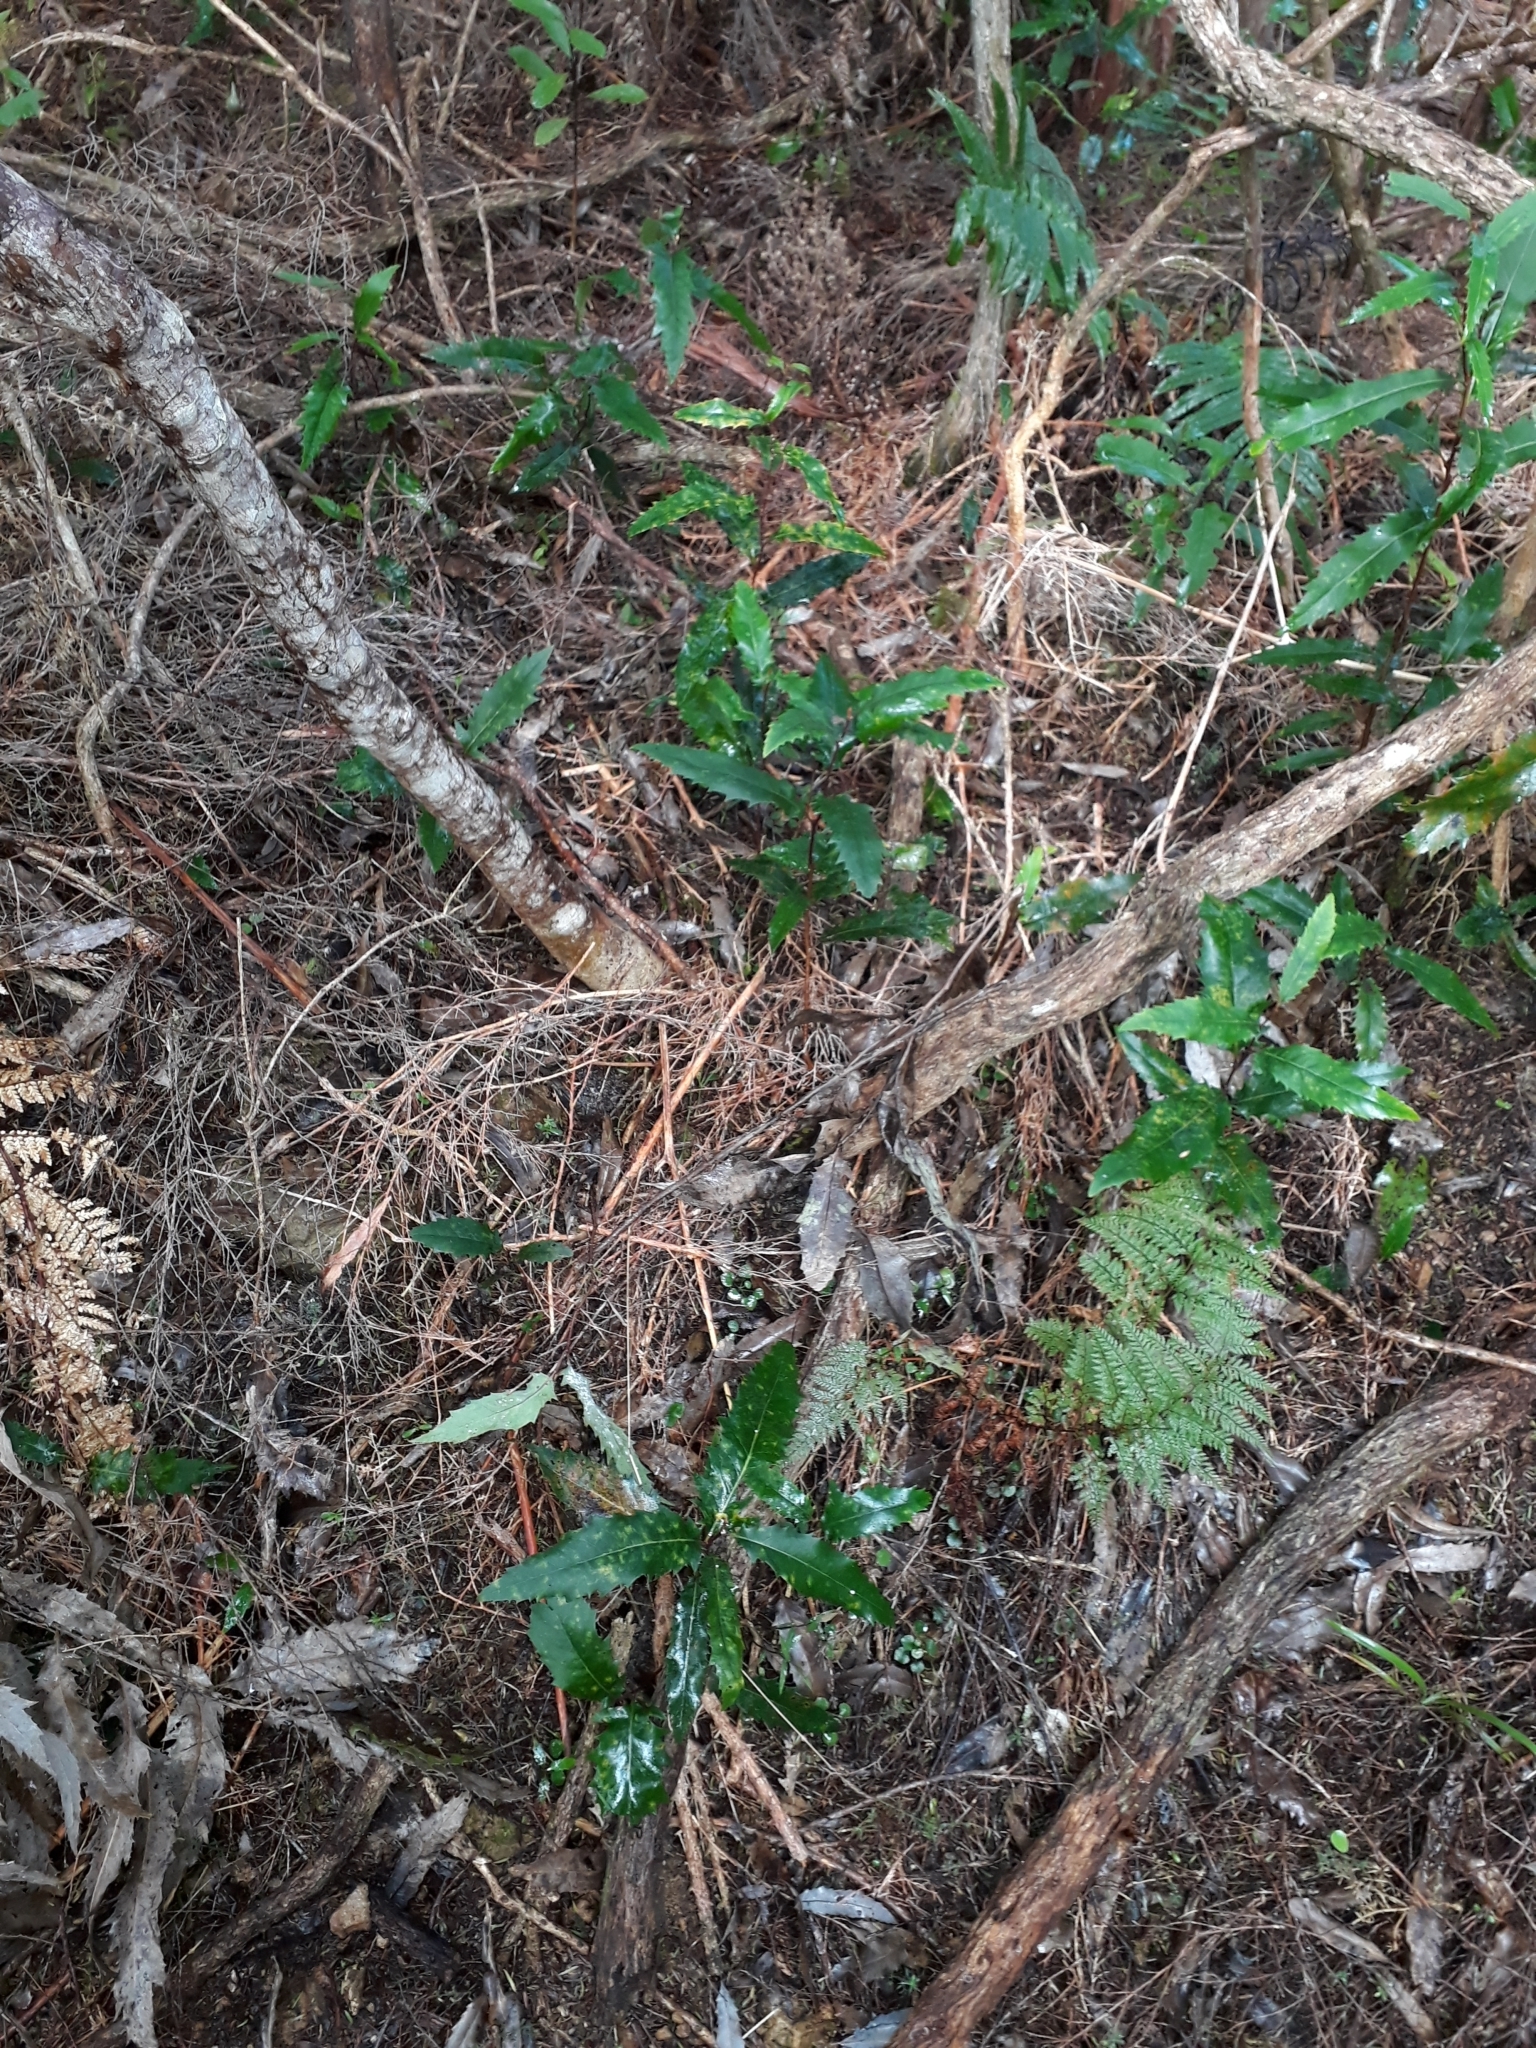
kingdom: Plantae
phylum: Tracheophyta
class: Magnoliopsida
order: Proteales
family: Proteaceae
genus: Lomatia
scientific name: Lomatia fraseri
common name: Forest lomatia
